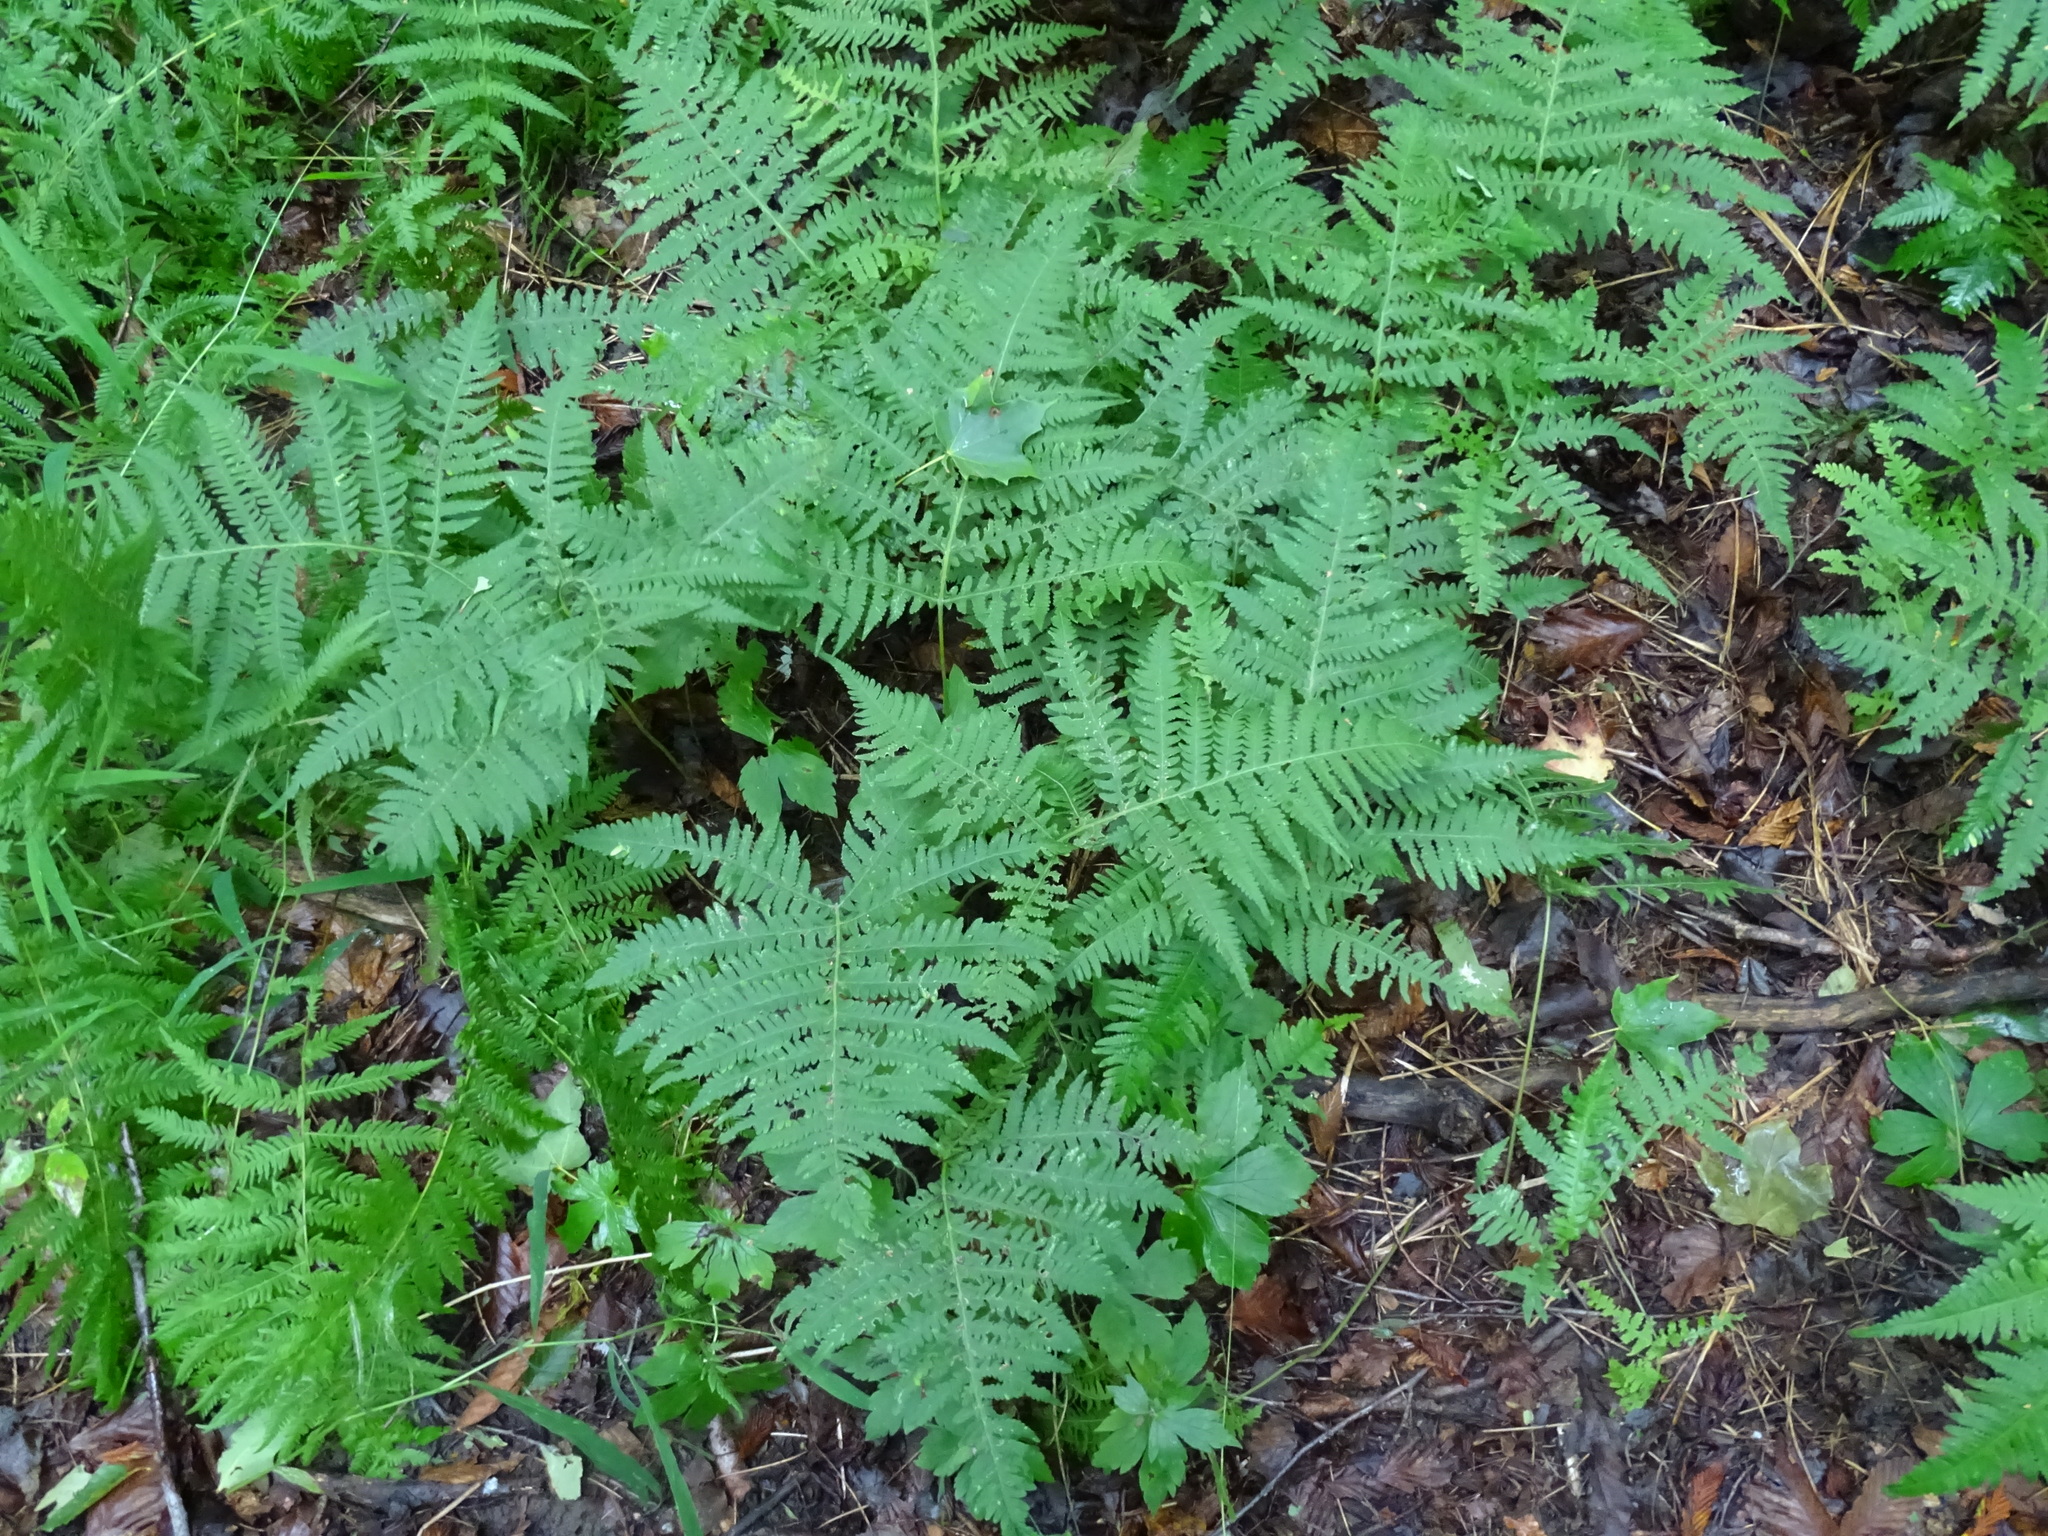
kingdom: Plantae
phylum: Tracheophyta
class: Polypodiopsida
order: Polypodiales
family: Thelypteridaceae
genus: Phegopteris
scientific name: Phegopteris hexagonoptera
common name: Broad beech fern
